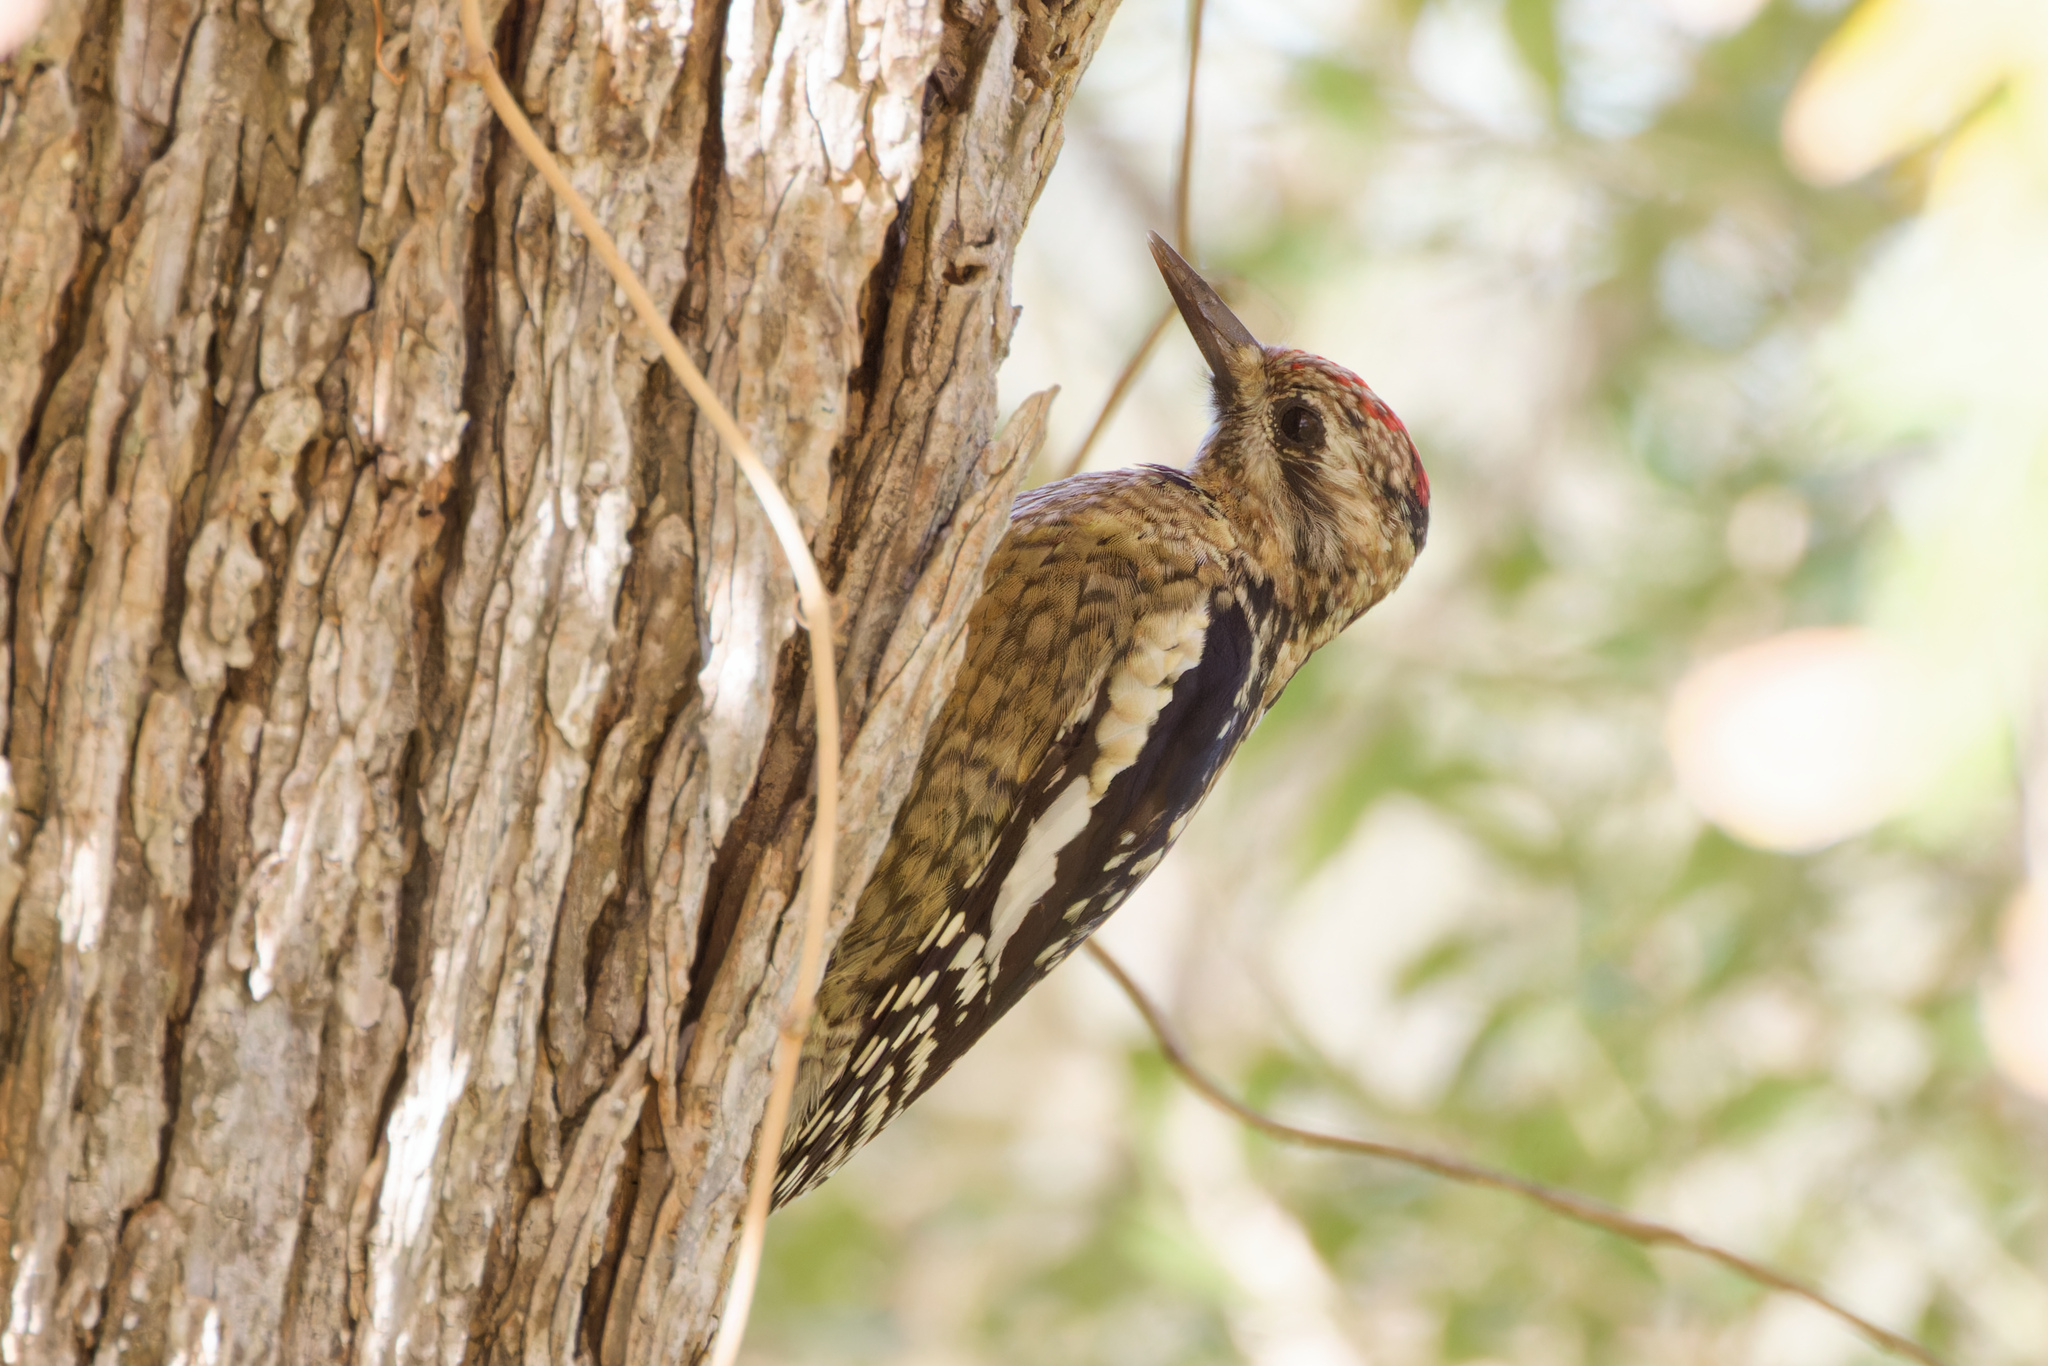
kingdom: Animalia
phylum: Chordata
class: Aves
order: Piciformes
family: Picidae
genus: Sphyrapicus
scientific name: Sphyrapicus varius
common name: Yellow-bellied sapsucker
